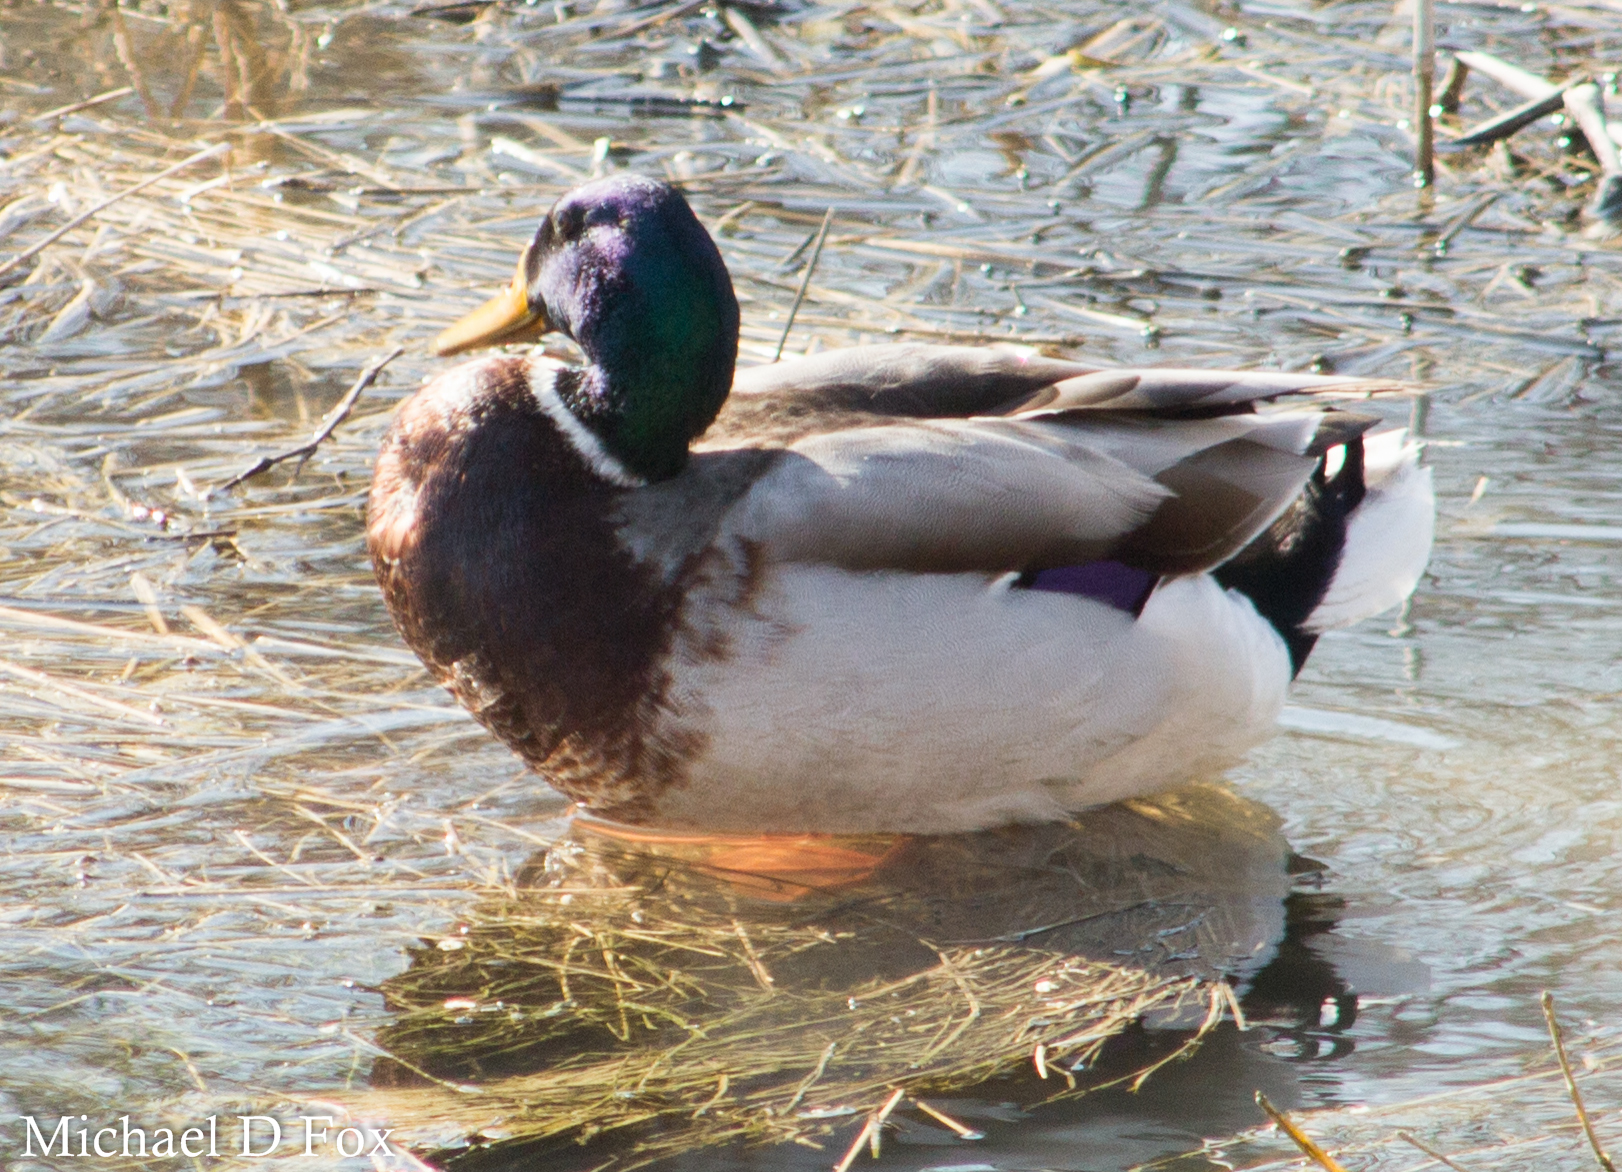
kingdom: Animalia
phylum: Chordata
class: Aves
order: Anseriformes
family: Anatidae
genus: Anas
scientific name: Anas platyrhynchos
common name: Mallard
